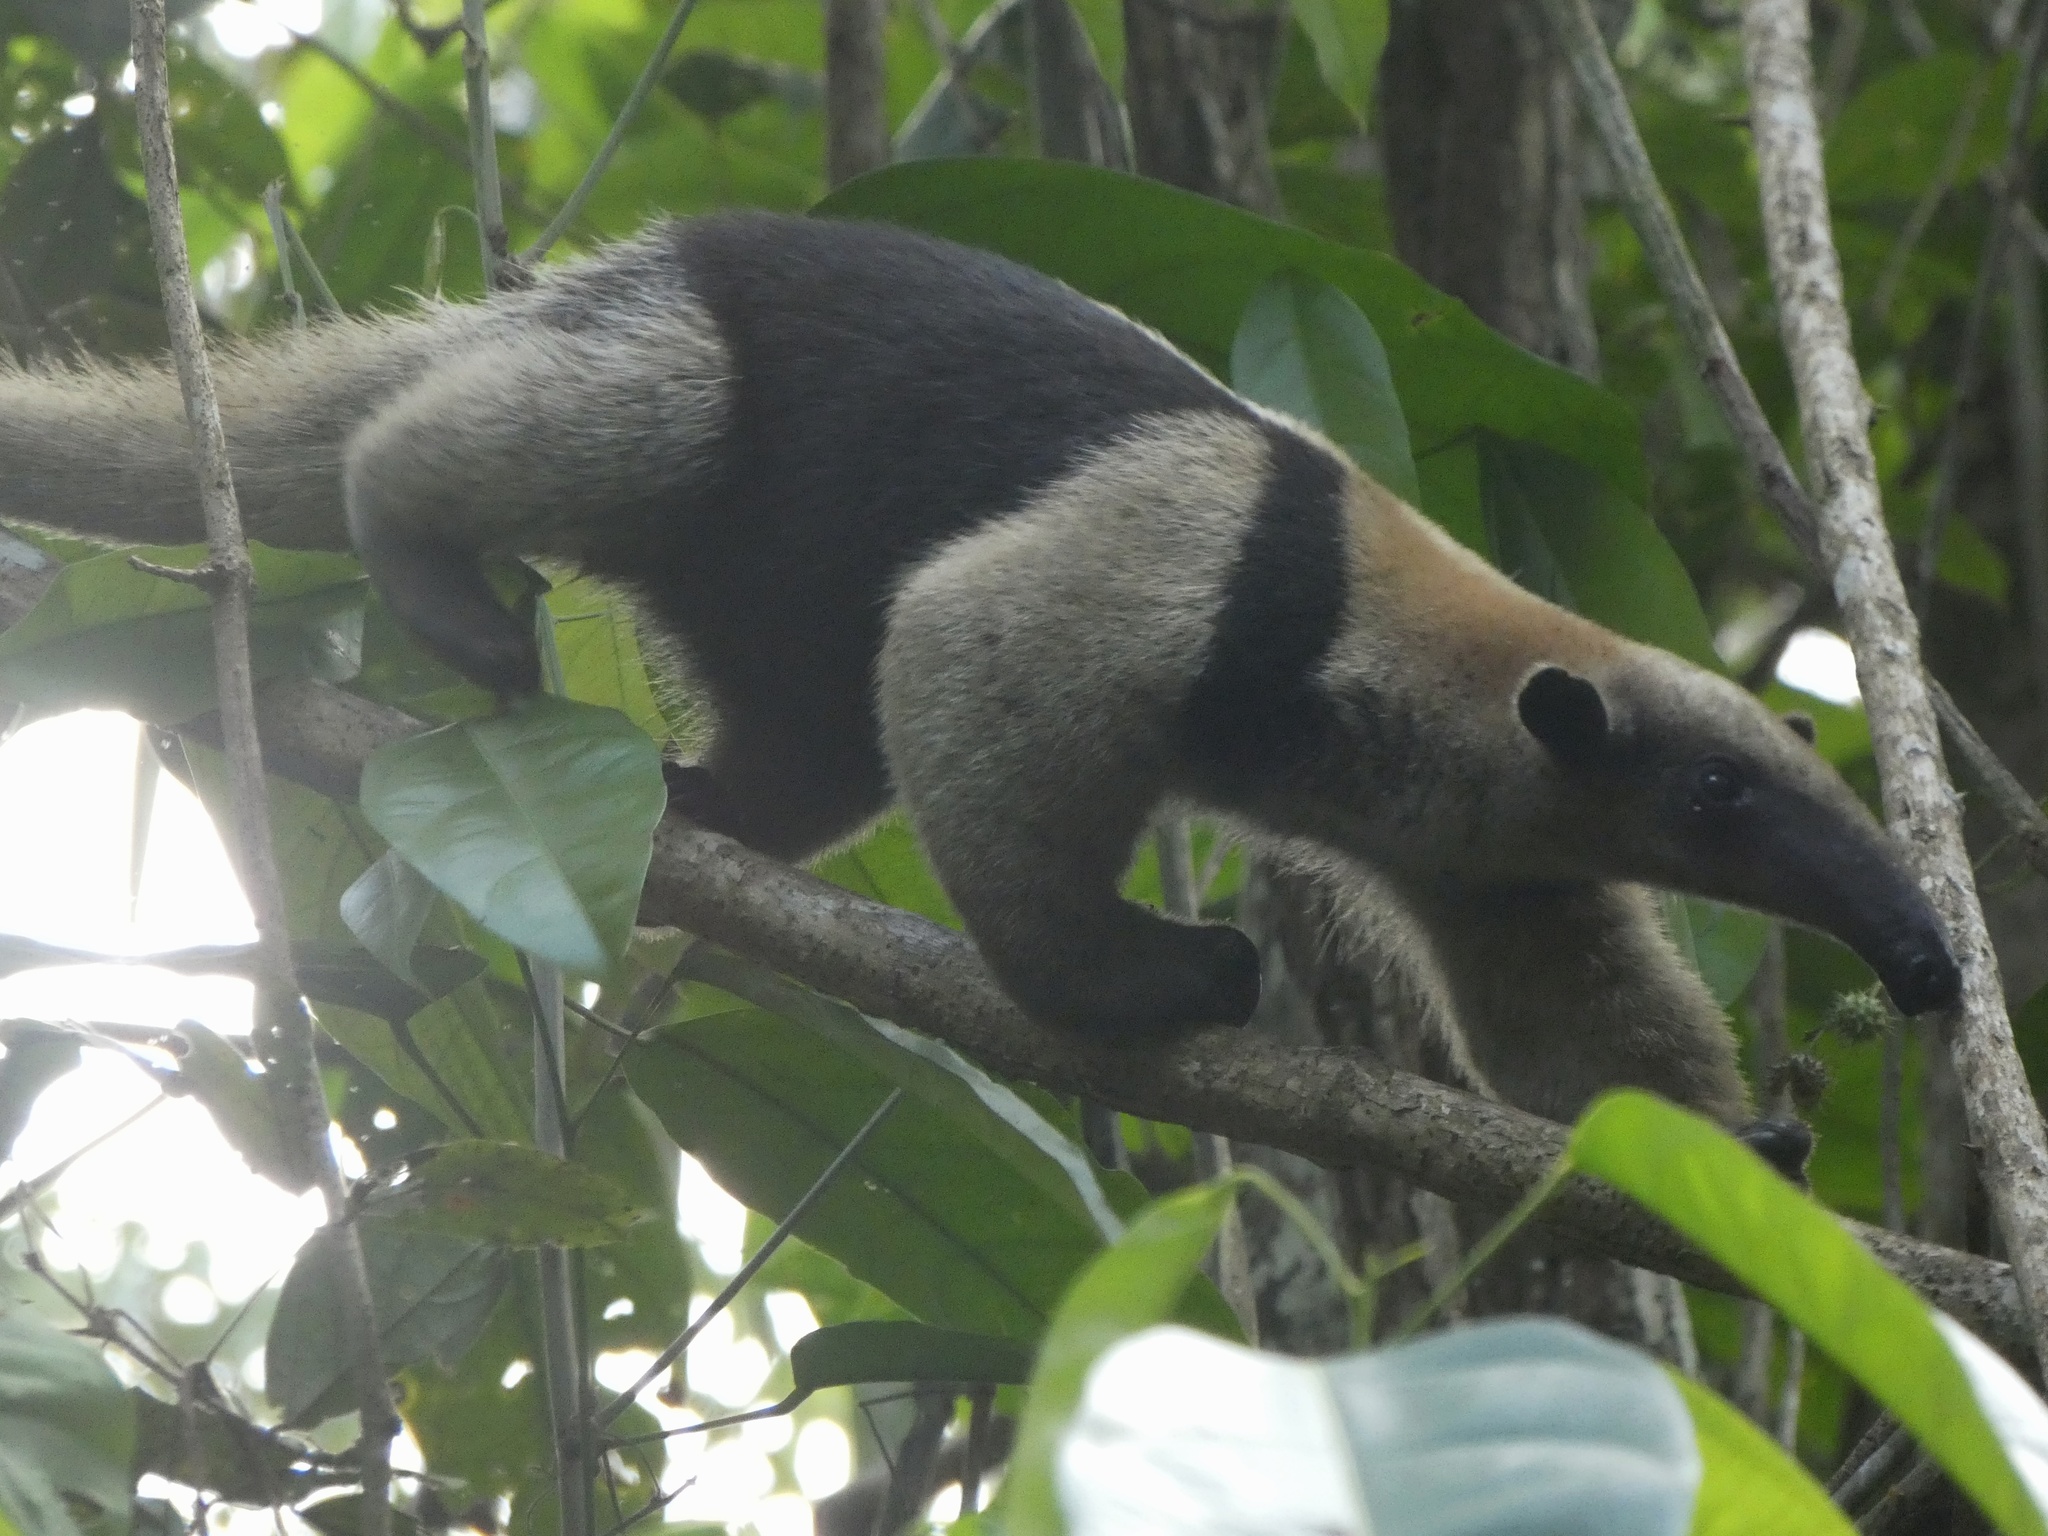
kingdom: Animalia
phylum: Chordata
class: Mammalia
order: Pilosa
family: Myrmecophagidae
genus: Tamandua
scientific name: Tamandua mexicana
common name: Northern tamandua
